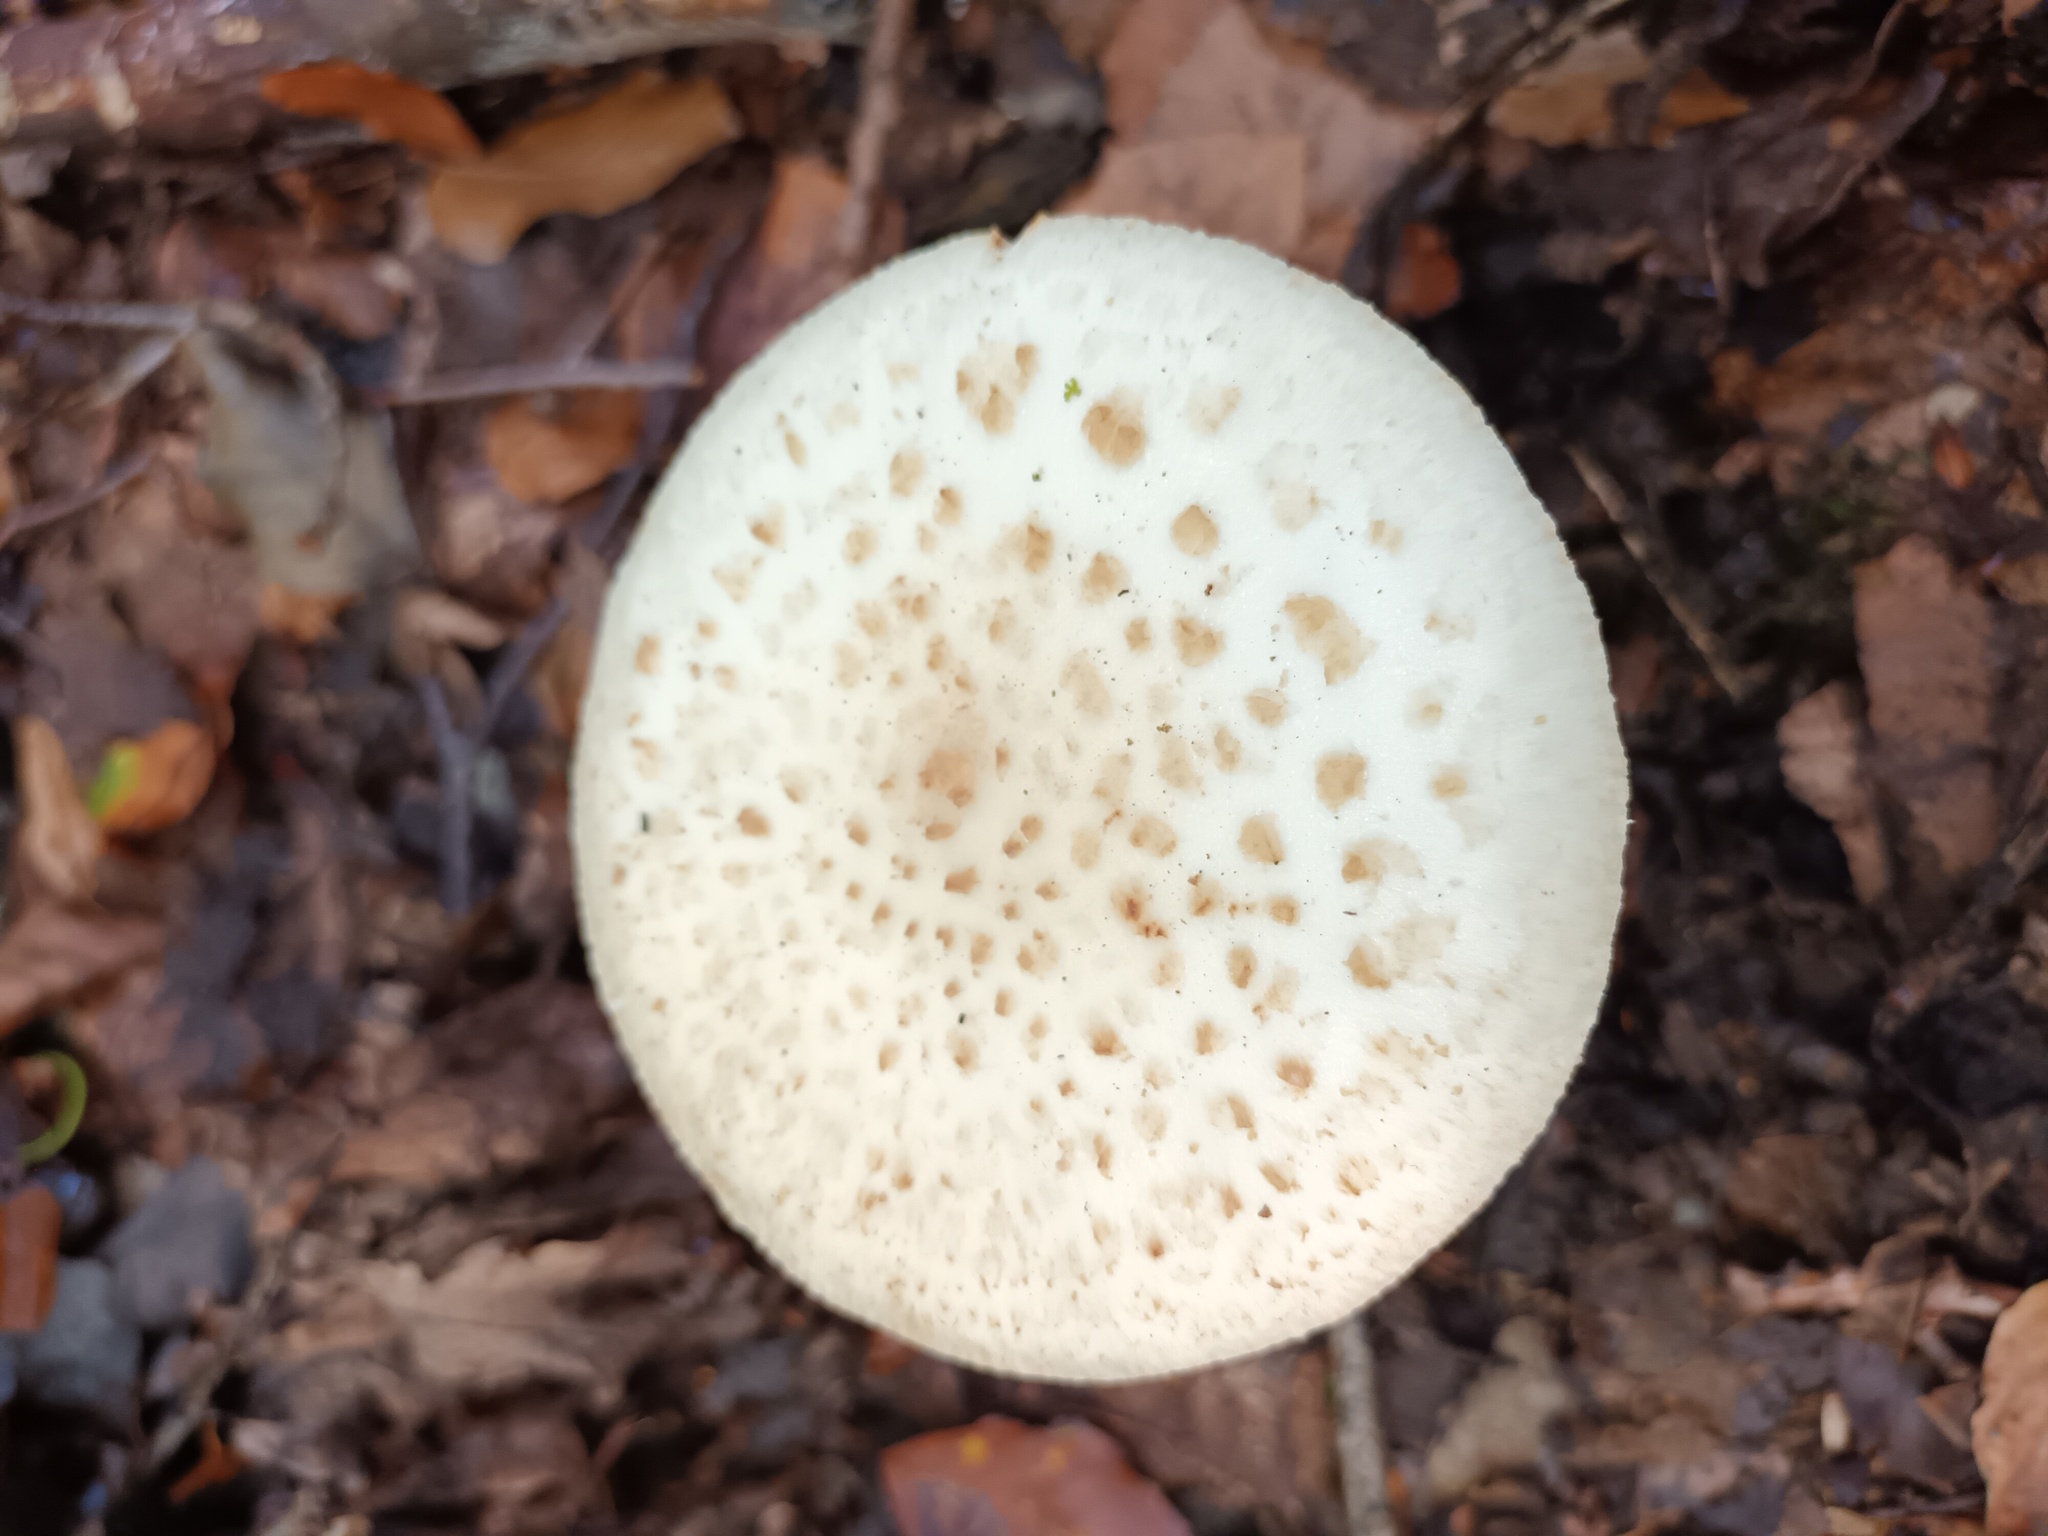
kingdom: Fungi
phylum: Basidiomycota
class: Agaricomycetes
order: Agaricales
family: Amanitaceae
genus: Amanita
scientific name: Amanita citrina
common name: False death-cap
